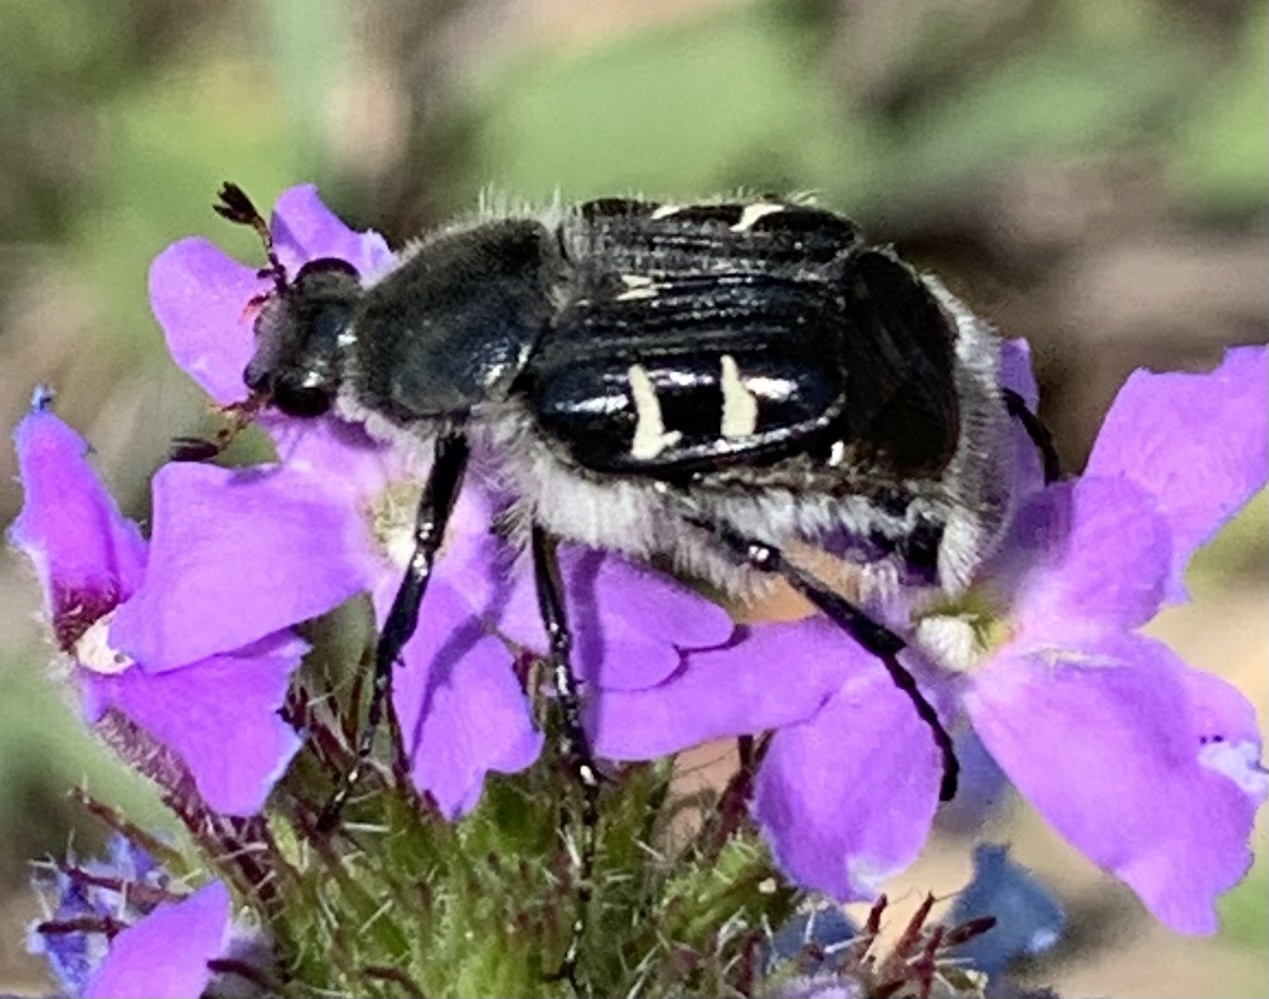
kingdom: Animalia
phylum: Arthropoda
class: Insecta
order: Coleoptera
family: Scarabaeidae
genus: Trichiotinus
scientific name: Trichiotinus texanus
